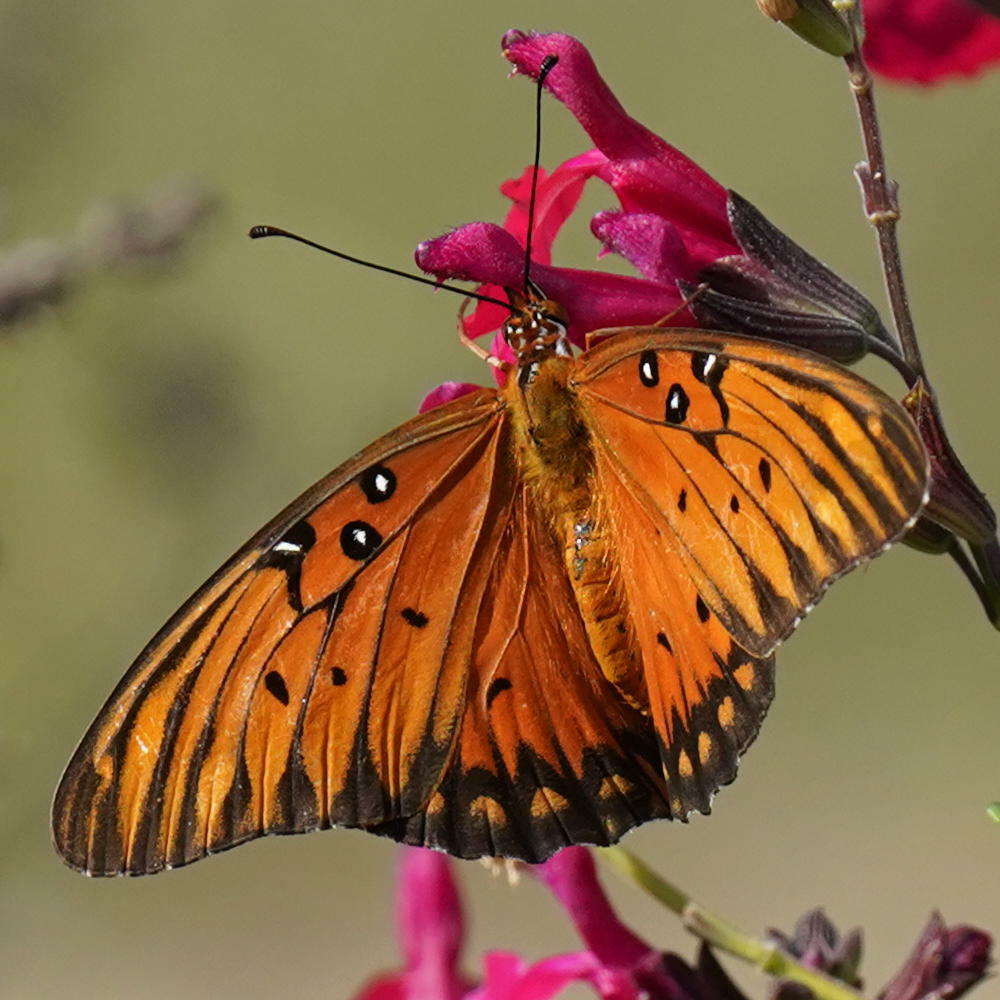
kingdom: Animalia
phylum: Arthropoda
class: Insecta
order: Lepidoptera
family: Nymphalidae
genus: Dione
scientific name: Dione vanillae
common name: Gulf fritillary
